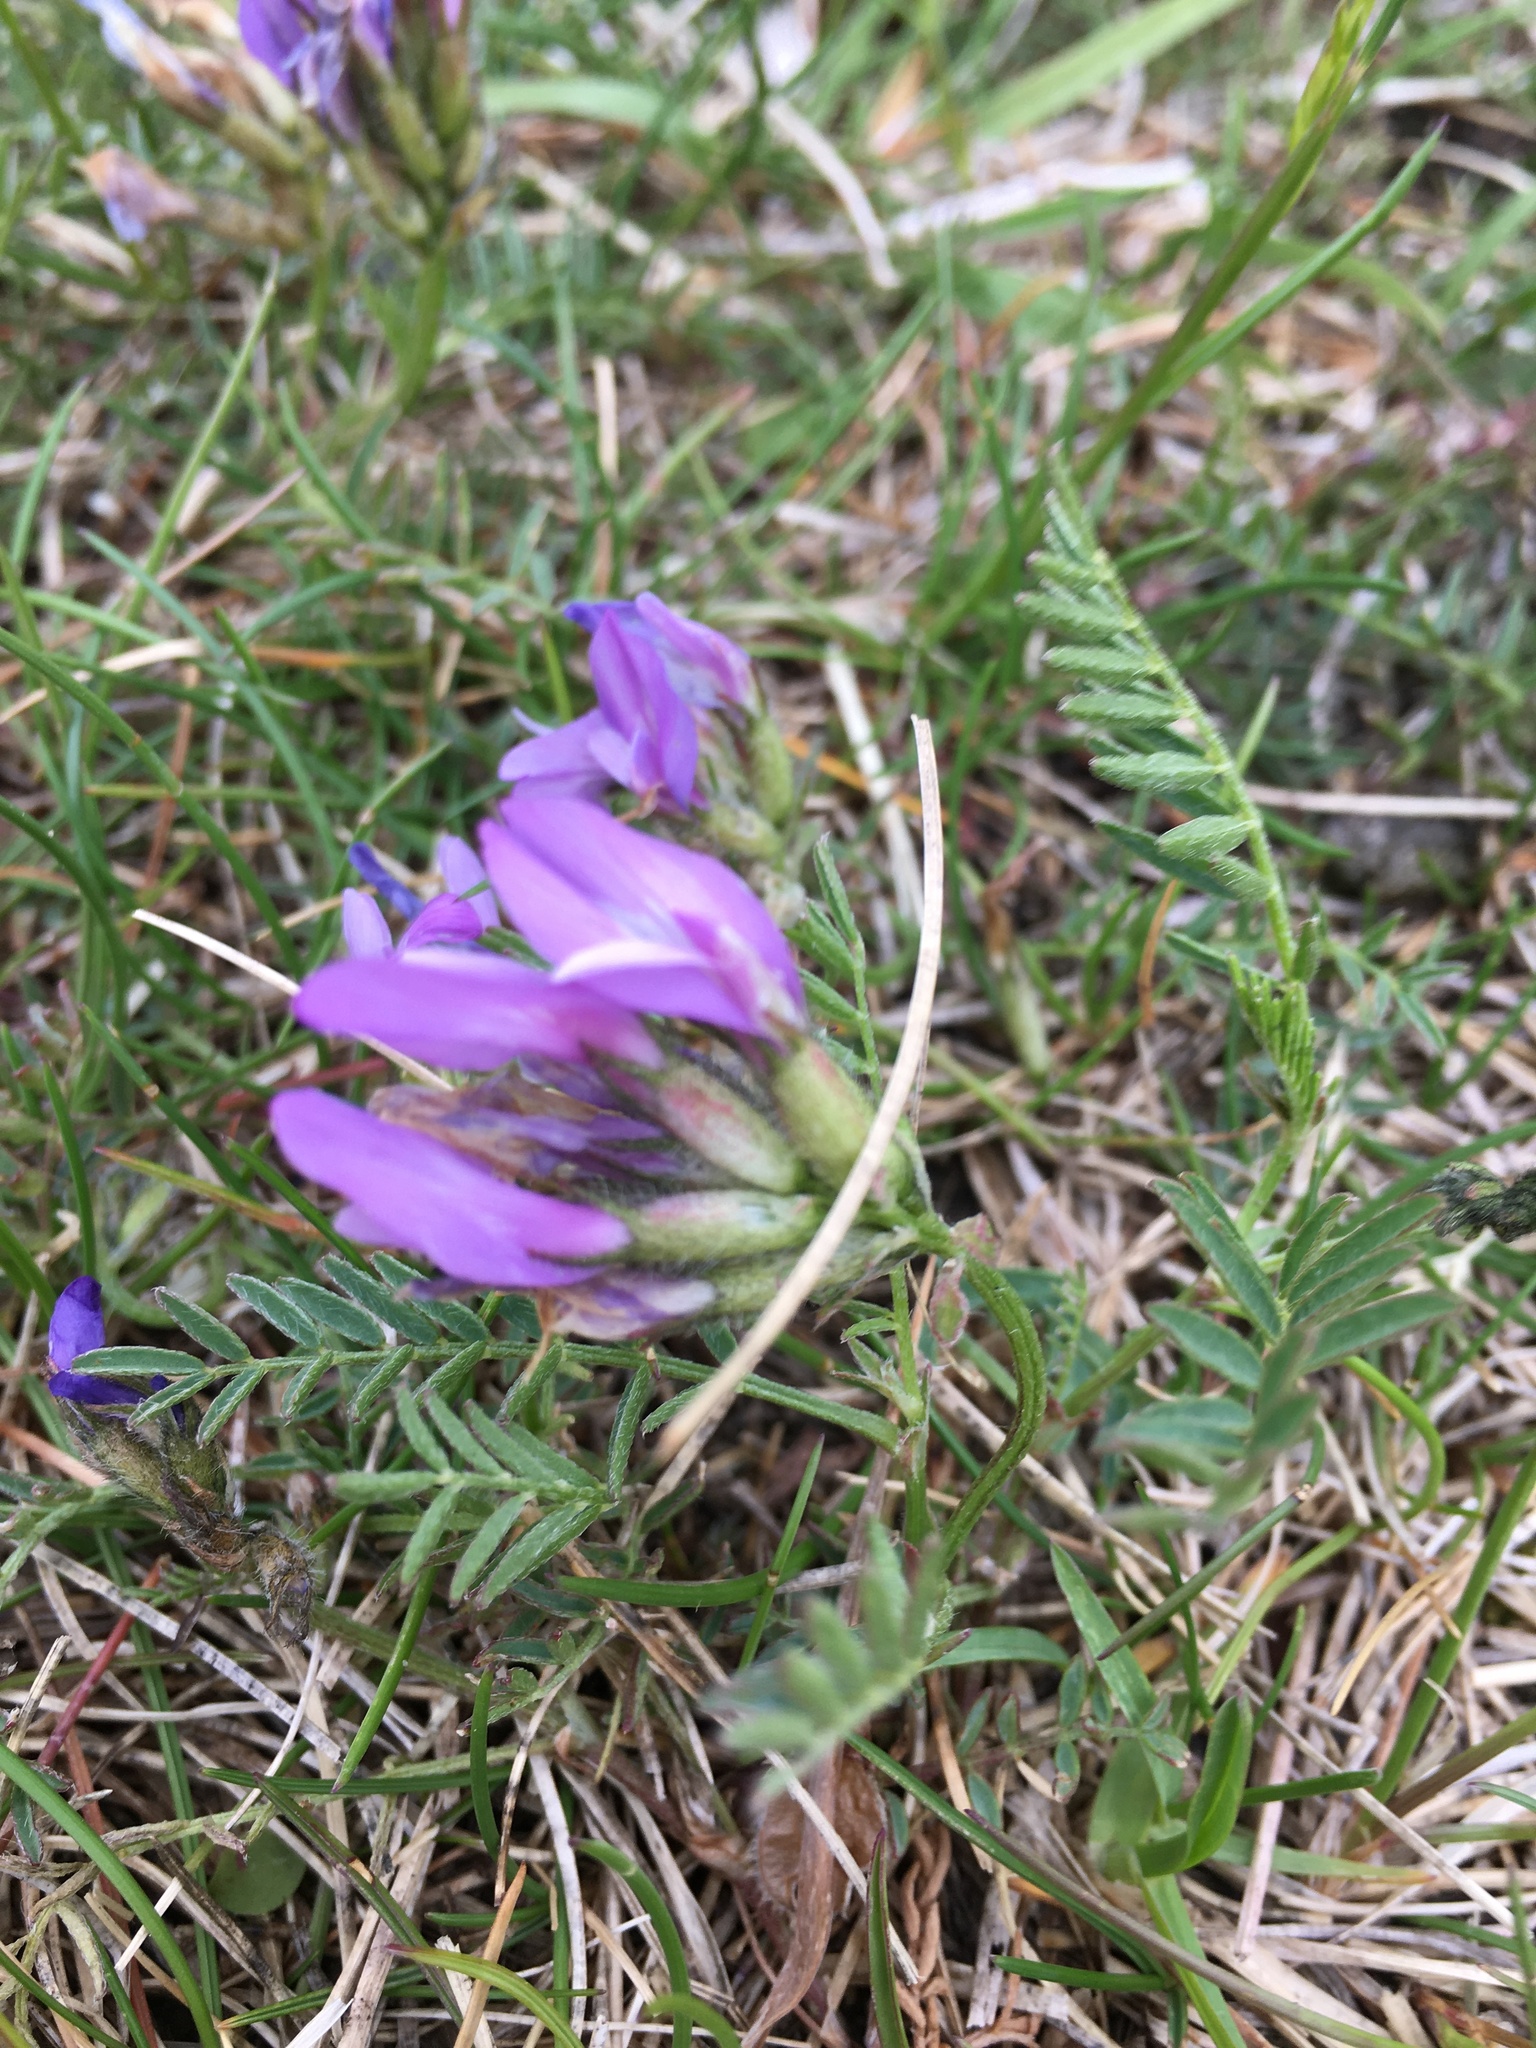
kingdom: Plantae
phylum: Tracheophyta
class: Magnoliopsida
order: Fabales
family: Fabaceae
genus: Astragalus
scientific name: Astragalus agrestis
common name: Field milk-vetch
